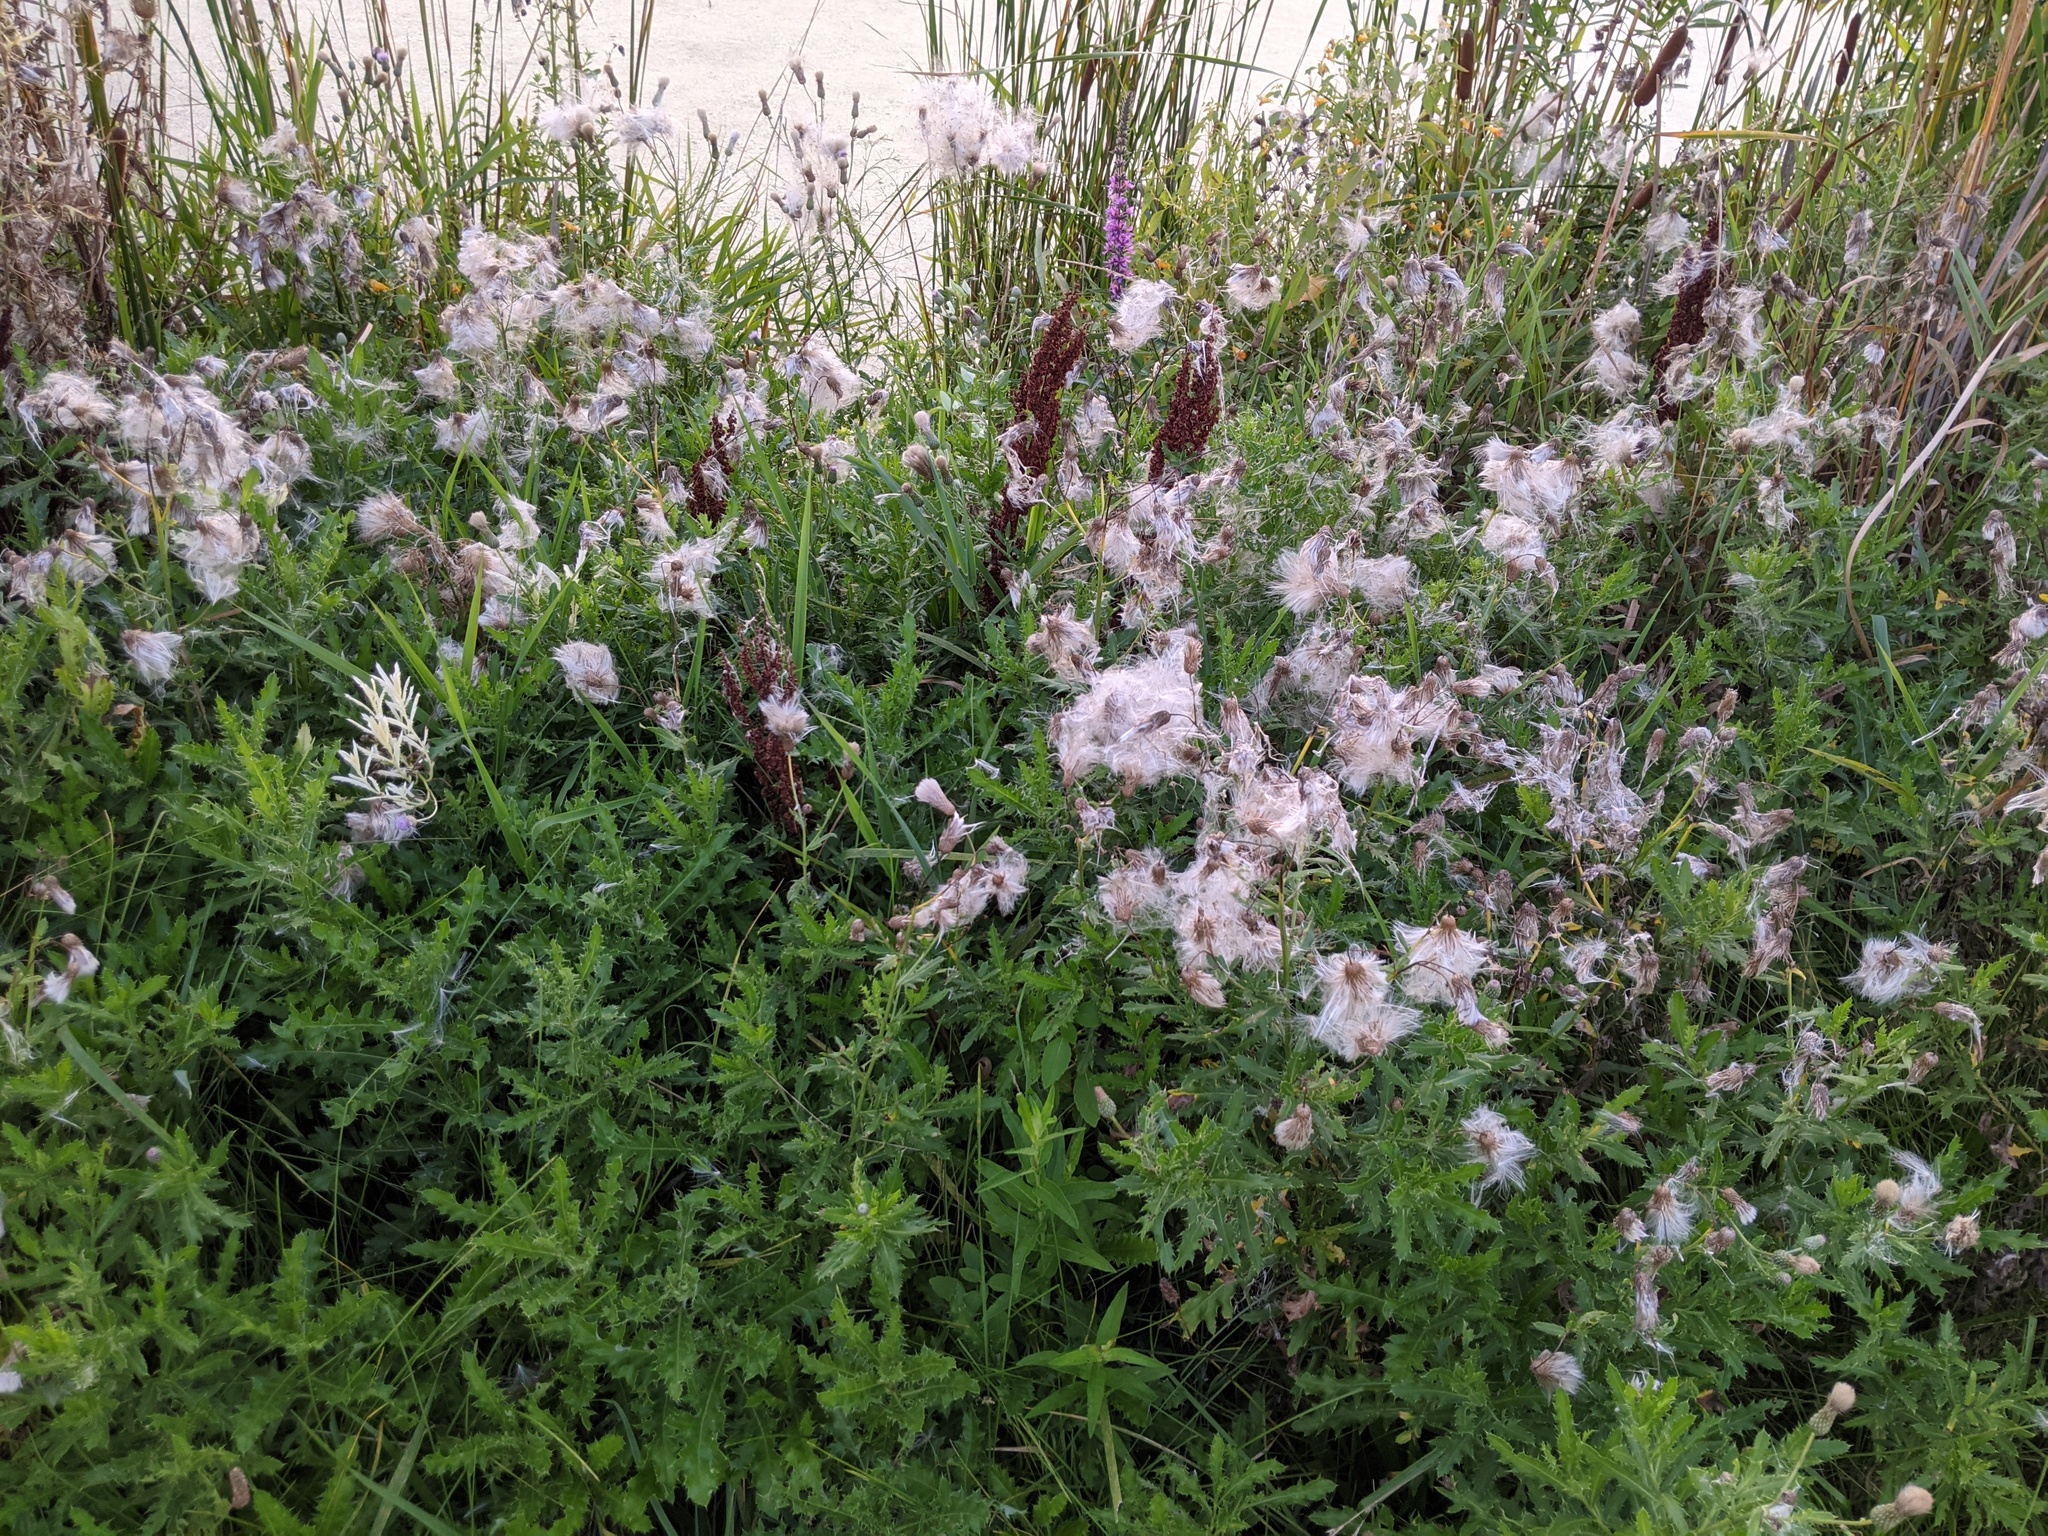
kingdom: Plantae
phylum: Tracheophyta
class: Magnoliopsida
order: Asterales
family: Asteraceae
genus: Cirsium
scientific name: Cirsium arvense
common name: Creeping thistle
